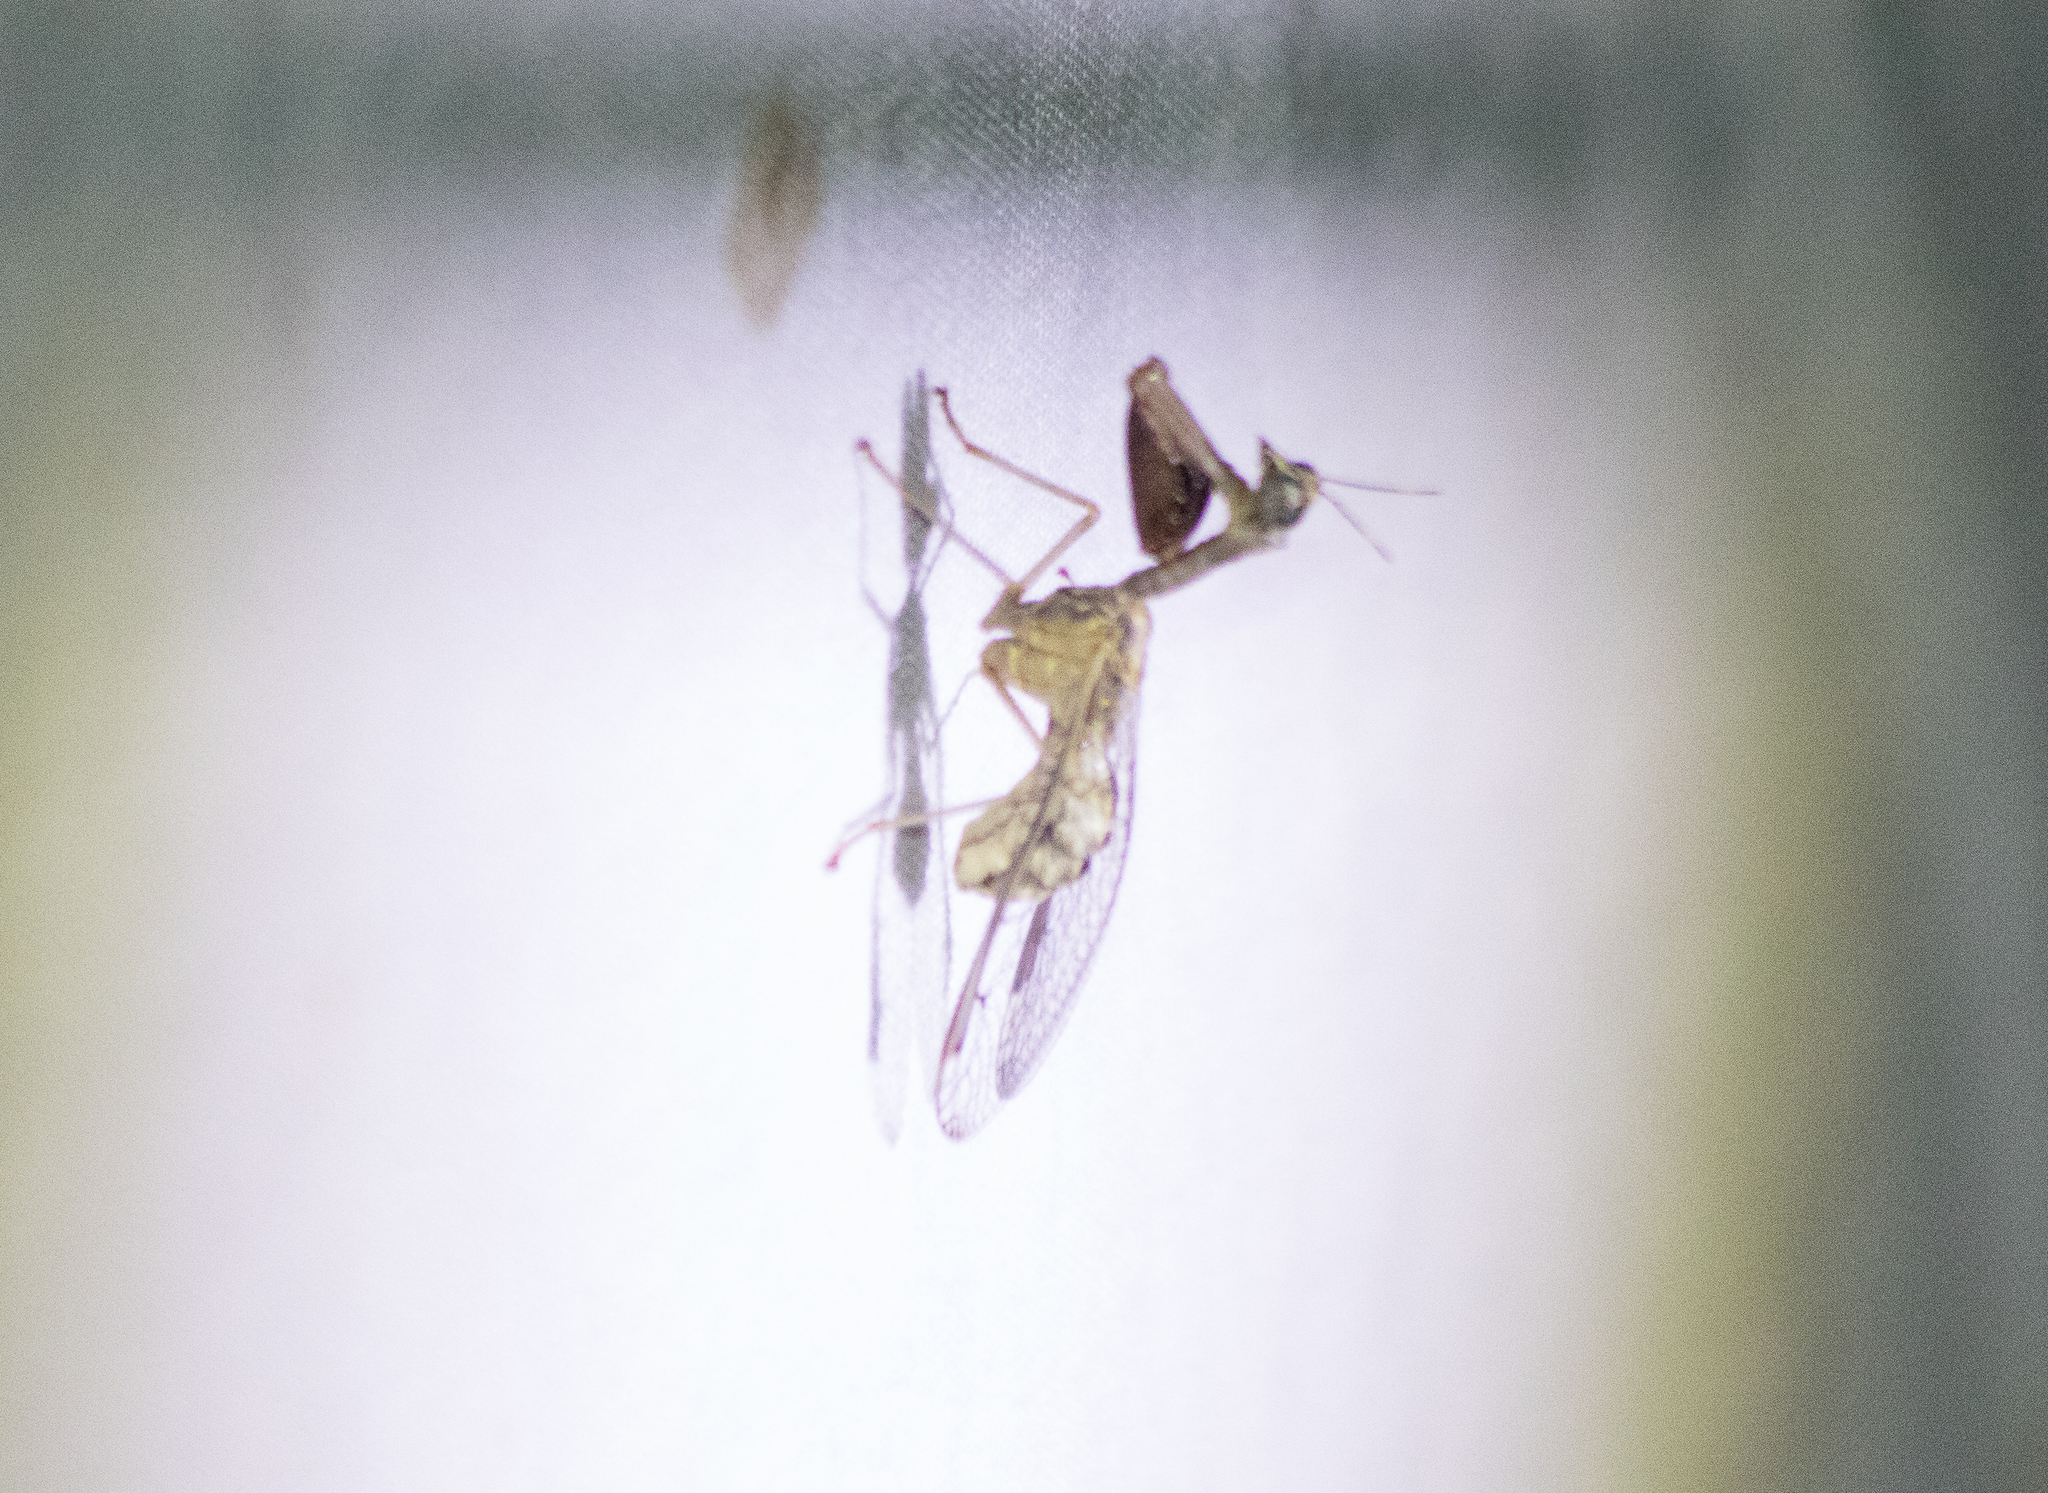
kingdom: Animalia
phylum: Arthropoda
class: Insecta
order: Neuroptera
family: Mantispidae
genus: Dicromantispa
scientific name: Dicromantispa interrupta
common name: Four-spotted mantidfly
